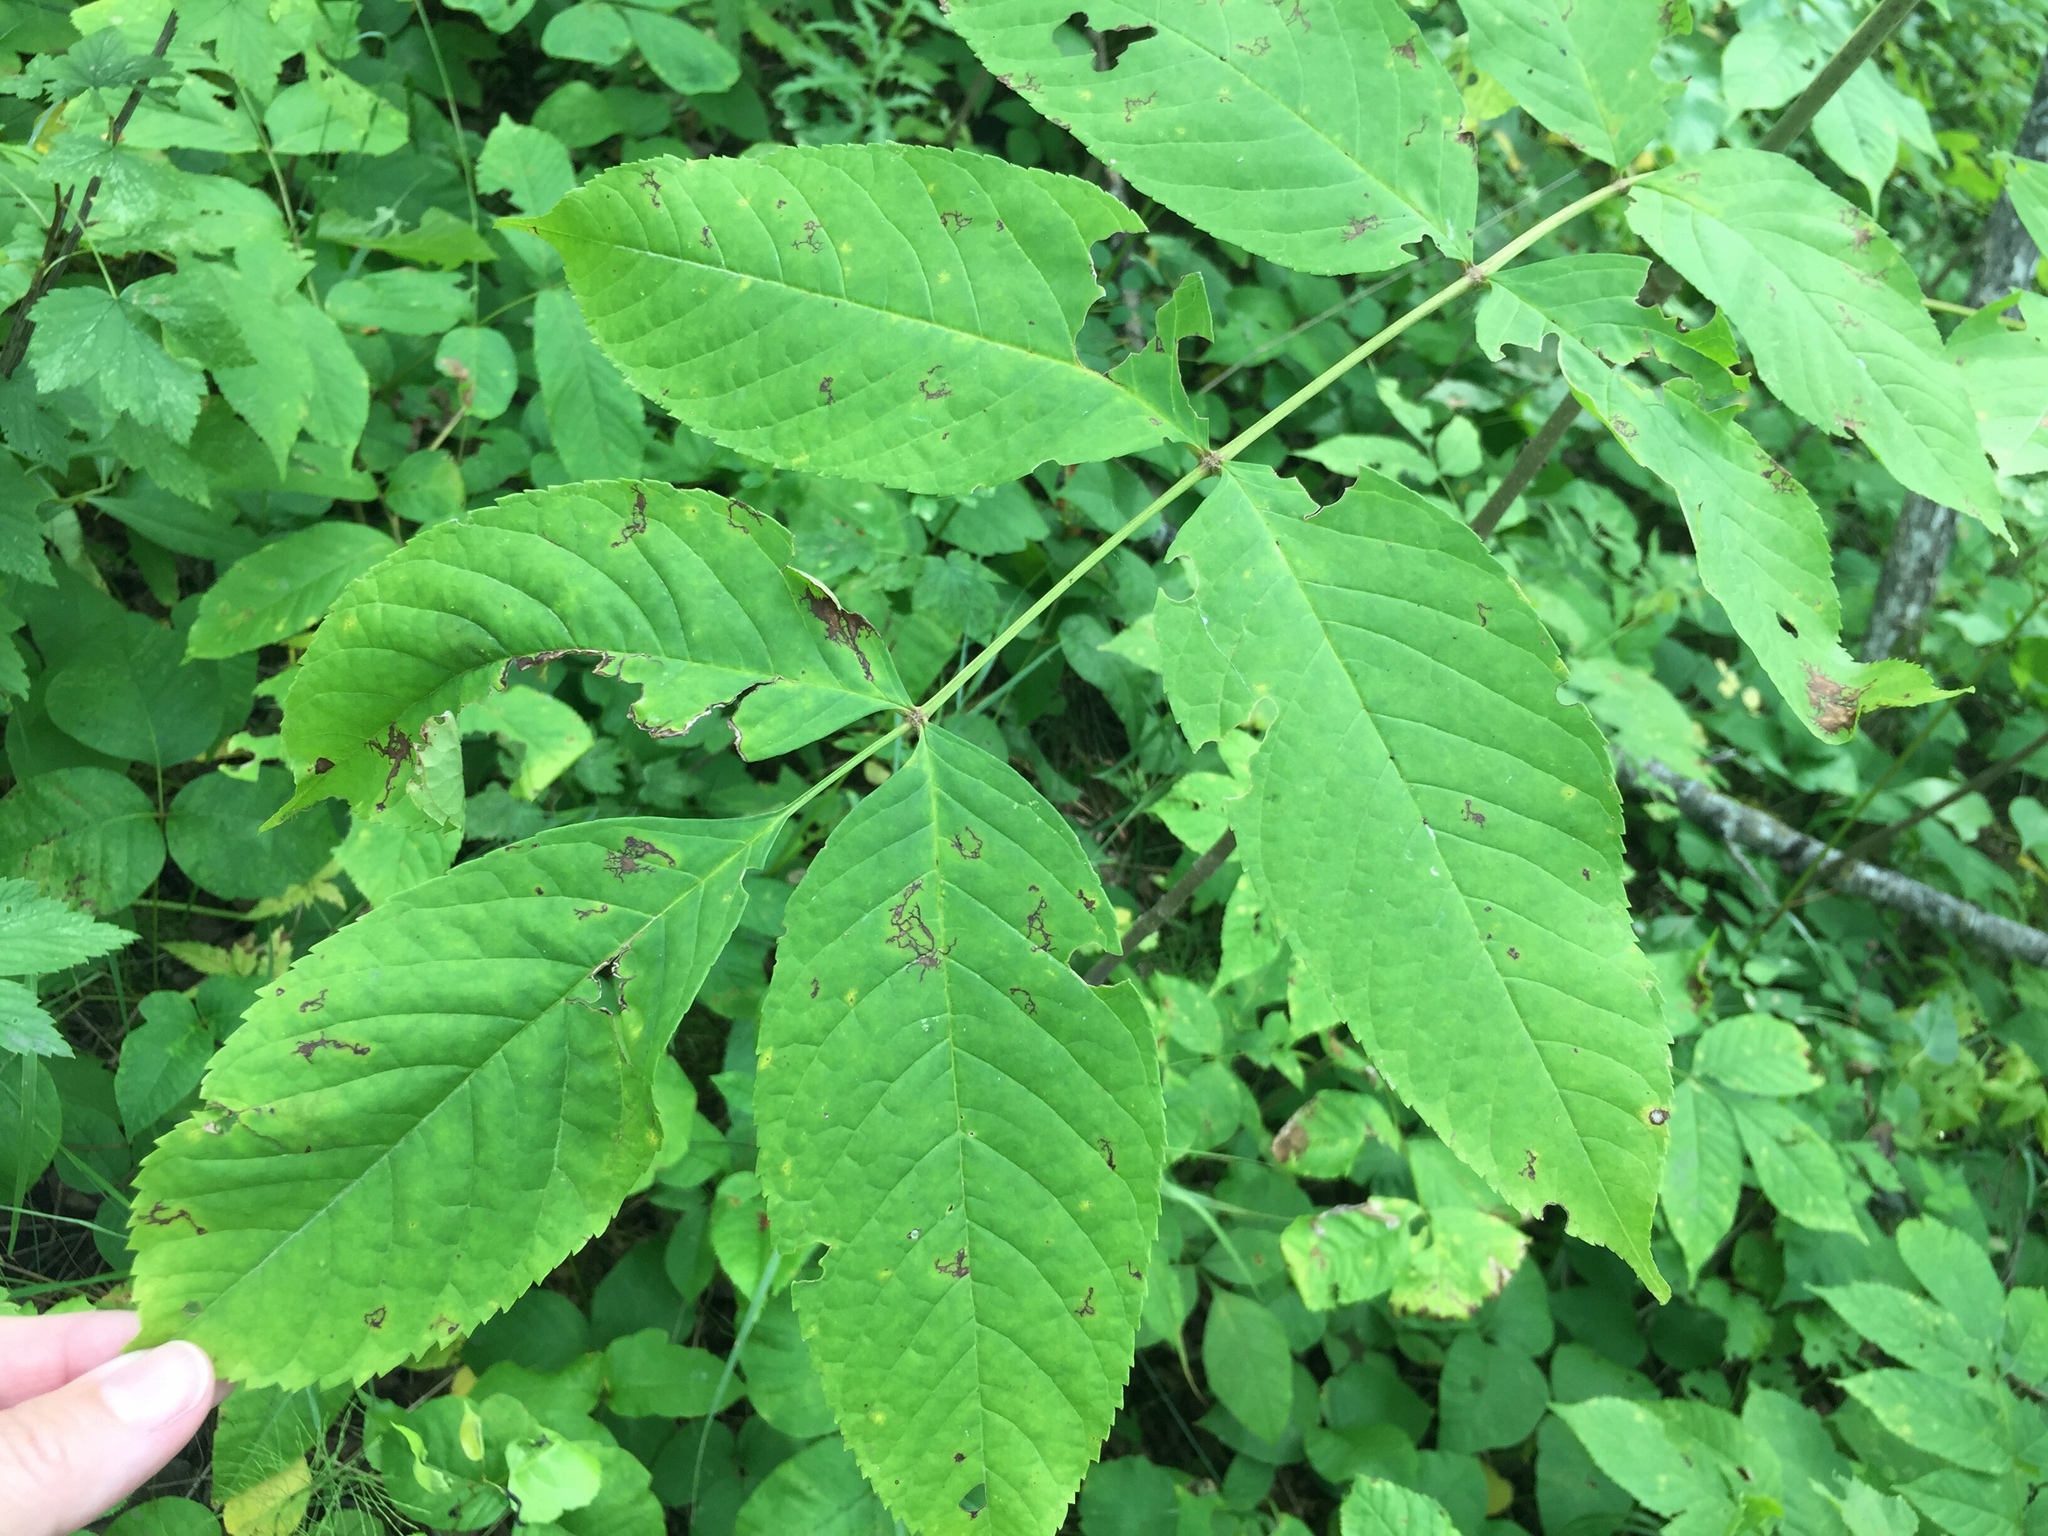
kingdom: Plantae
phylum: Tracheophyta
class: Magnoliopsida
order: Lamiales
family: Oleaceae
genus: Fraxinus
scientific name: Fraxinus nigra
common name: Black ash
